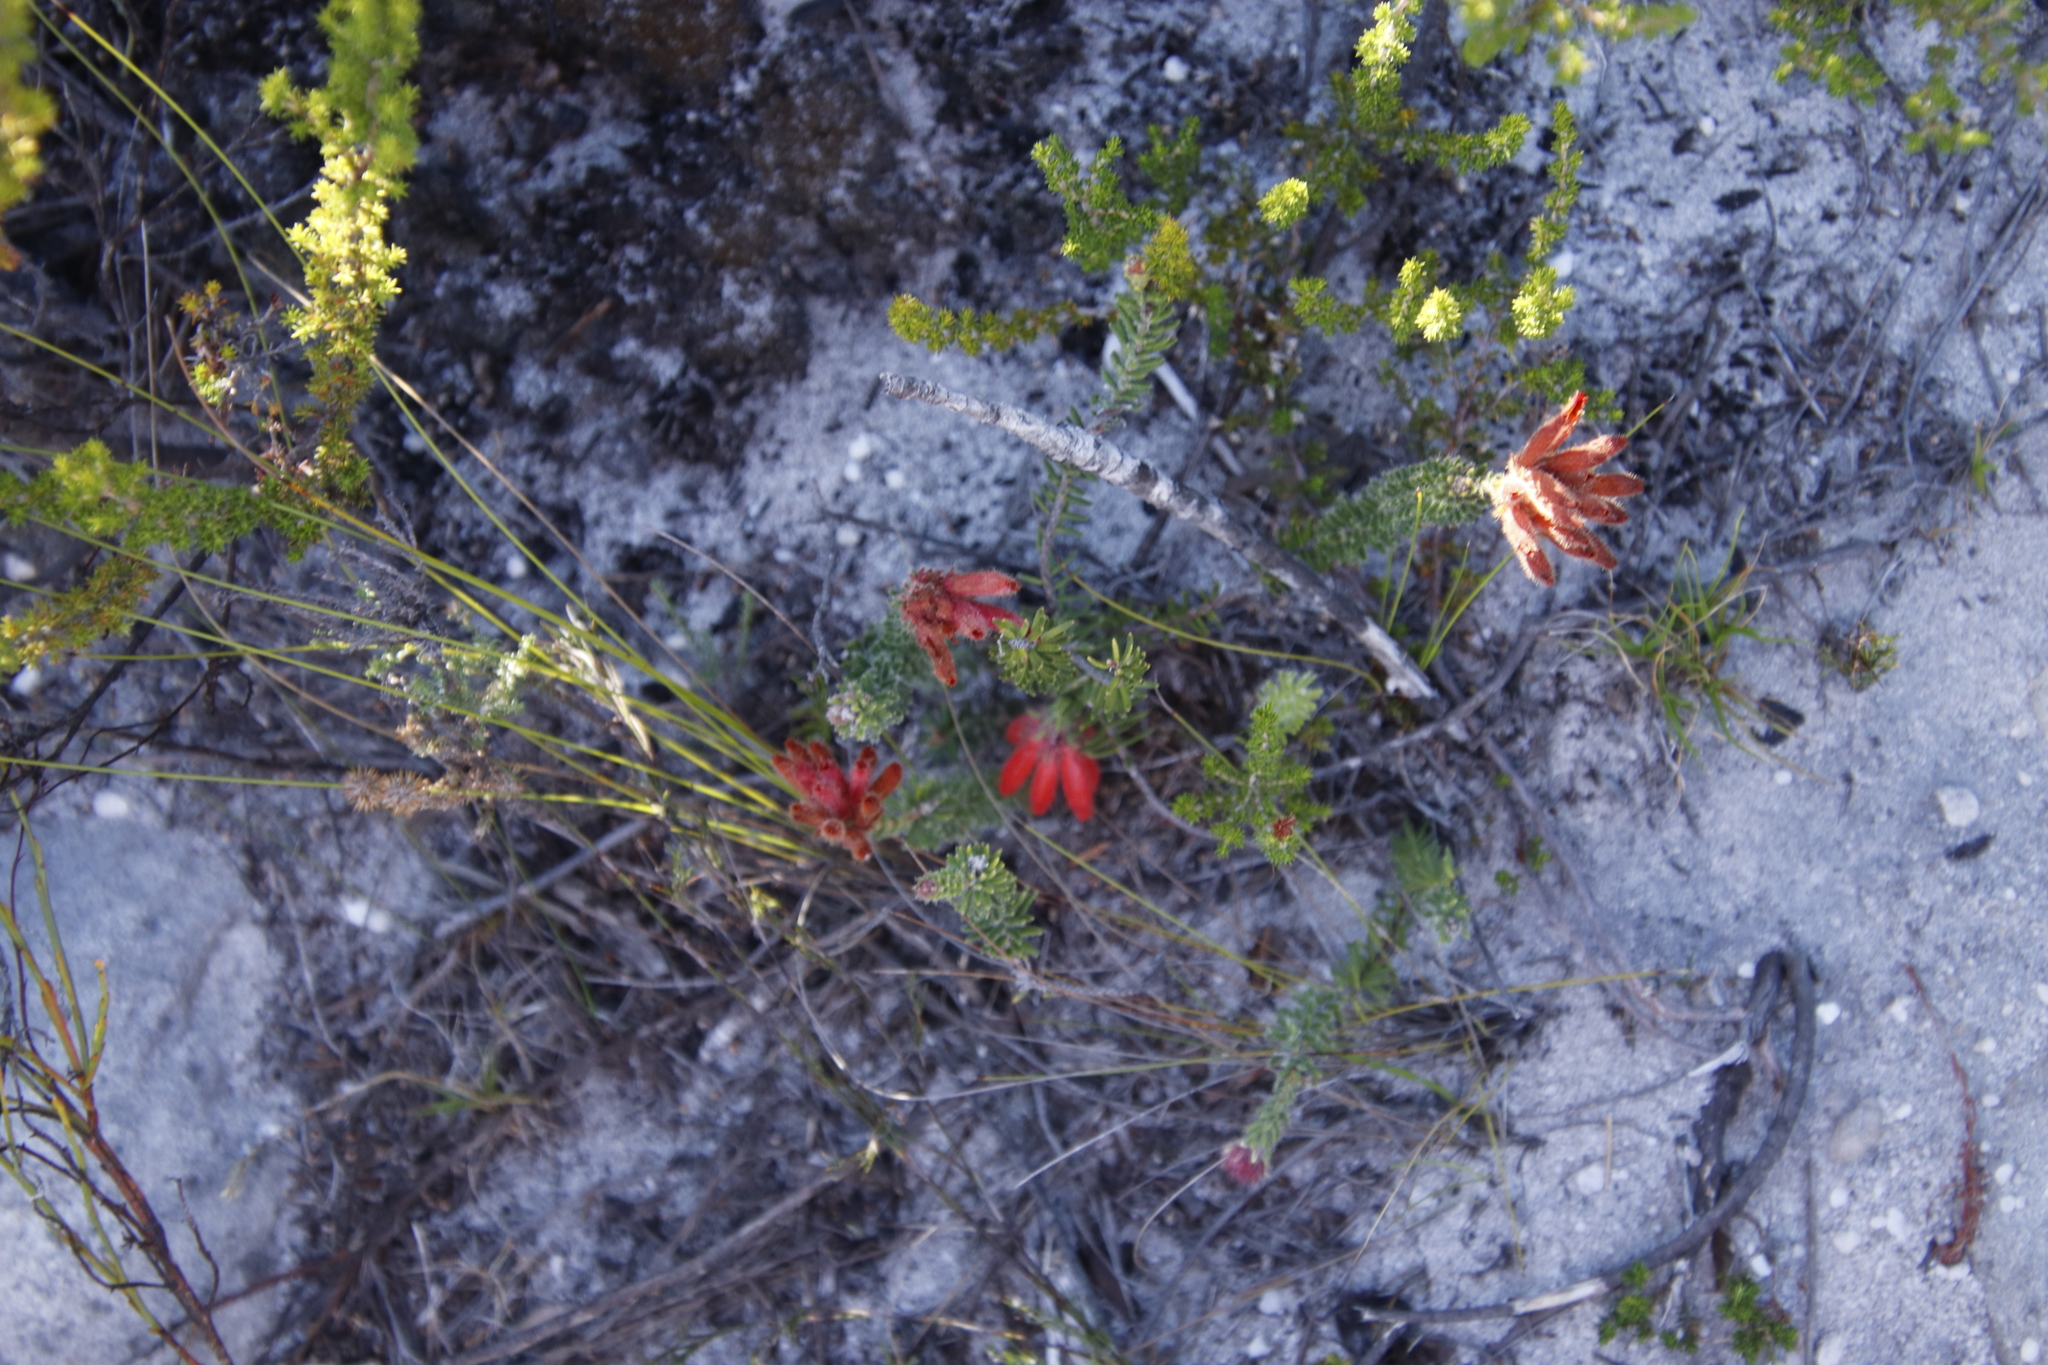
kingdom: Plantae
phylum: Tracheophyta
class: Magnoliopsida
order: Ericales
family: Ericaceae
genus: Erica
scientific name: Erica cerinthoides
